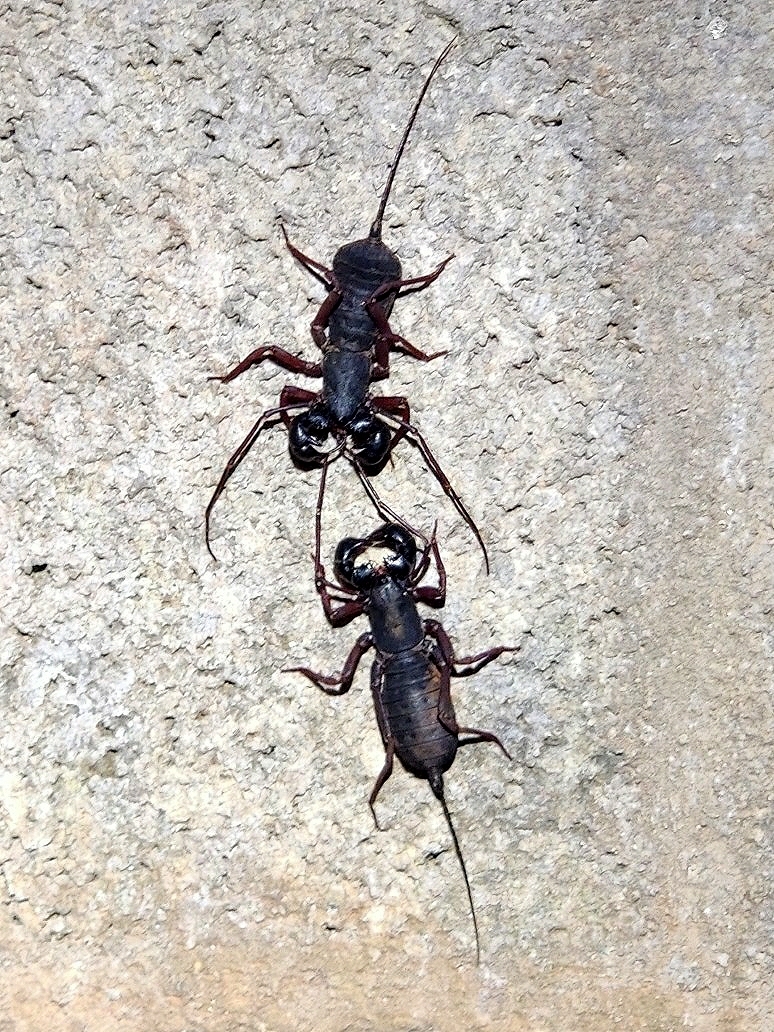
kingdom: Animalia
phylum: Arthropoda
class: Arachnida
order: Uropygi
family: Thelyphonidae
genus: Thelyphonus
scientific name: Thelyphonus sepiaris
